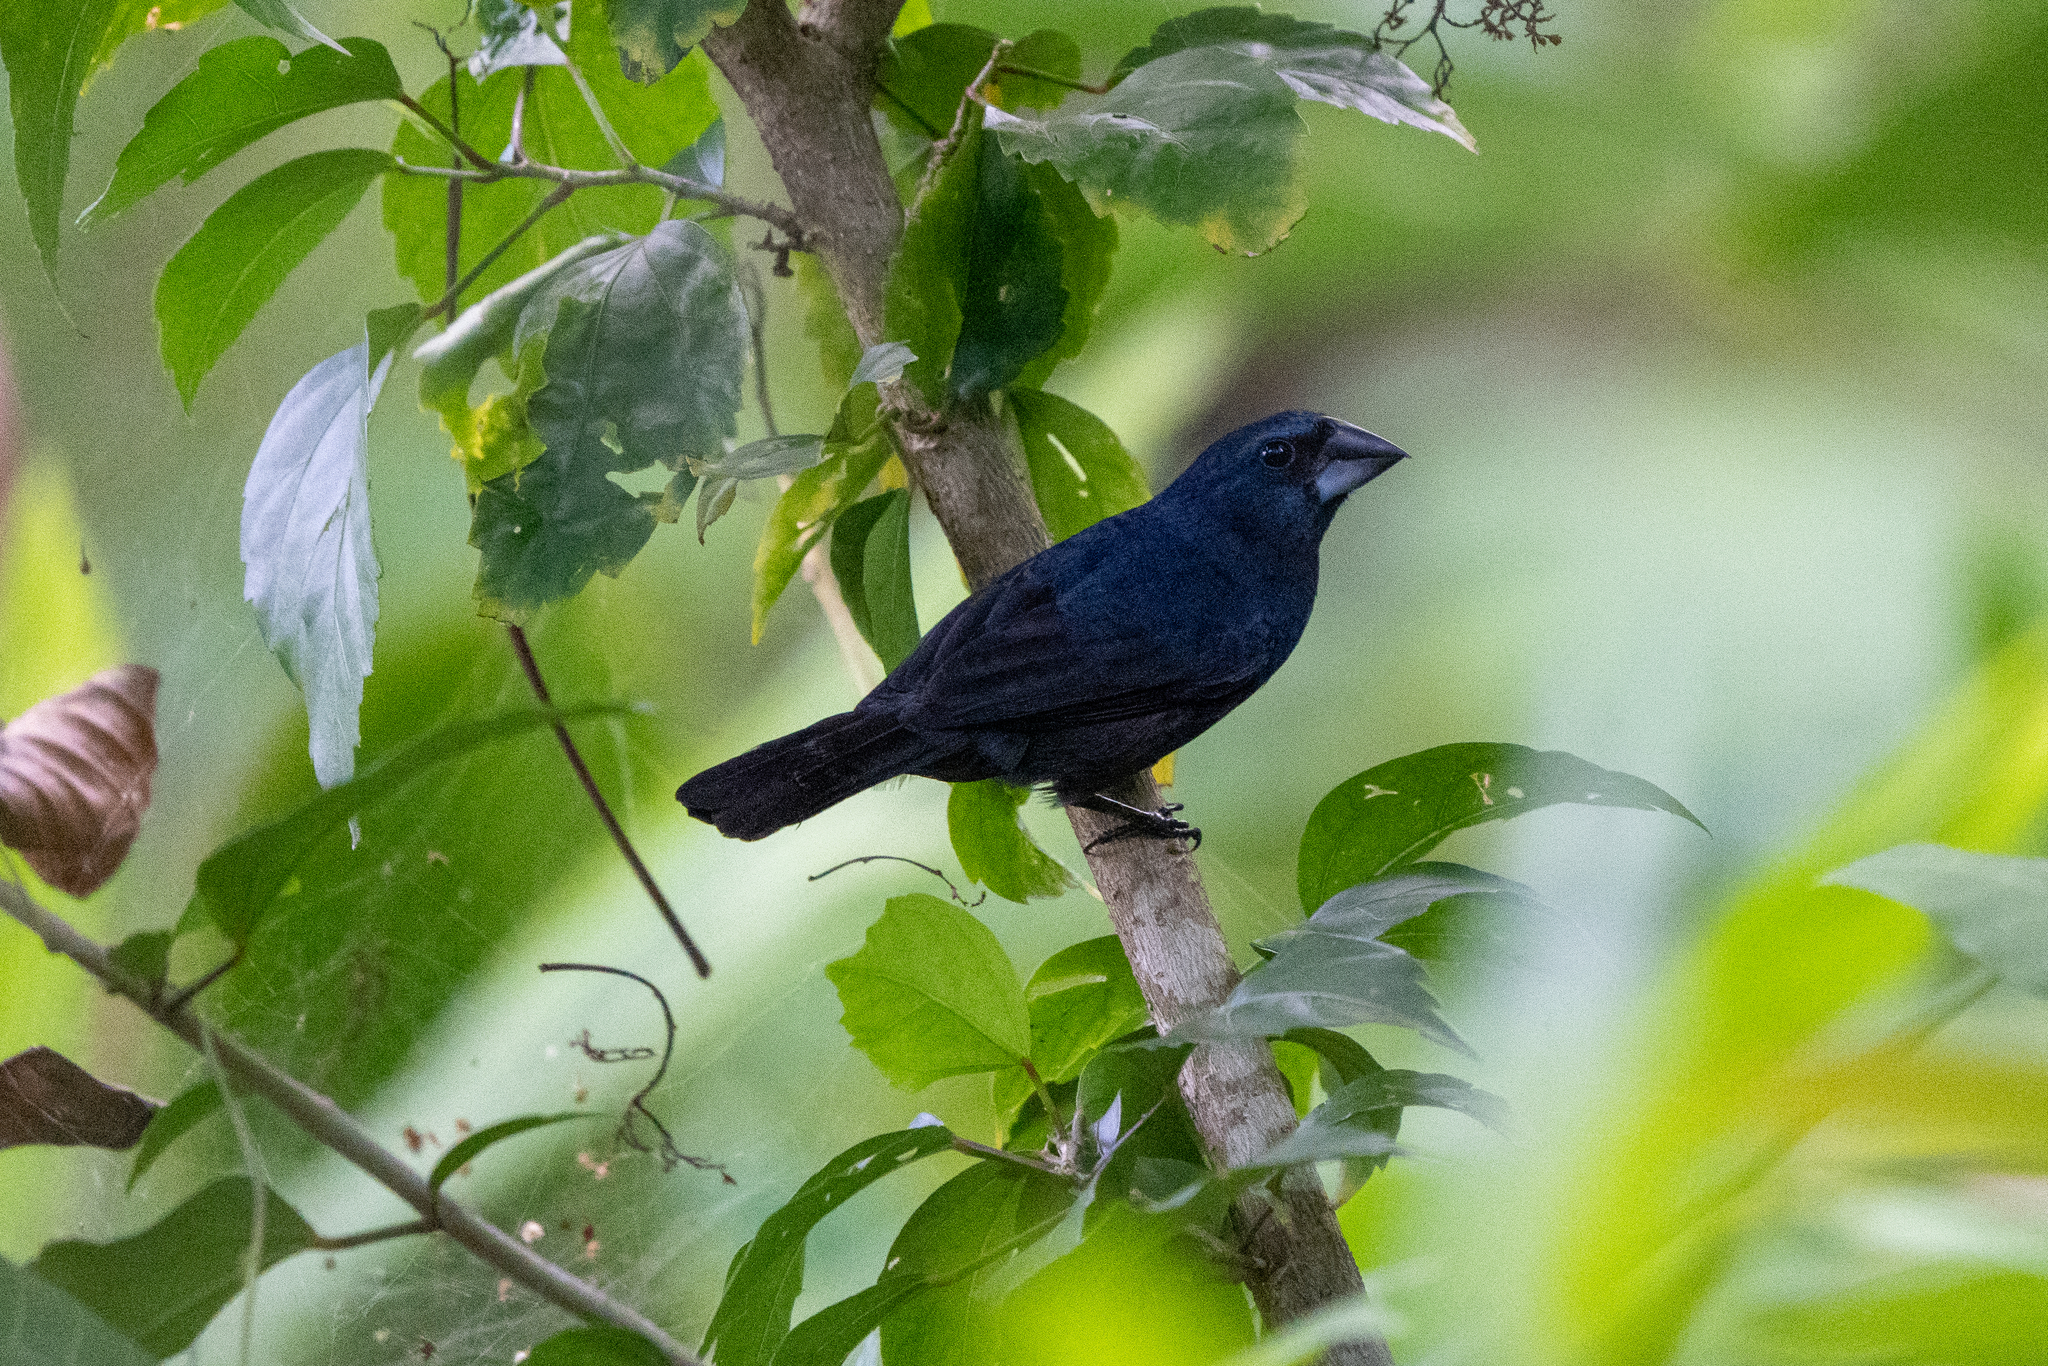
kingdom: Animalia
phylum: Chordata
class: Aves
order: Passeriformes
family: Cardinalidae
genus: Cyanocompsa
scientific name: Cyanocompsa cyanoides
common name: Blue-black grosbeak
